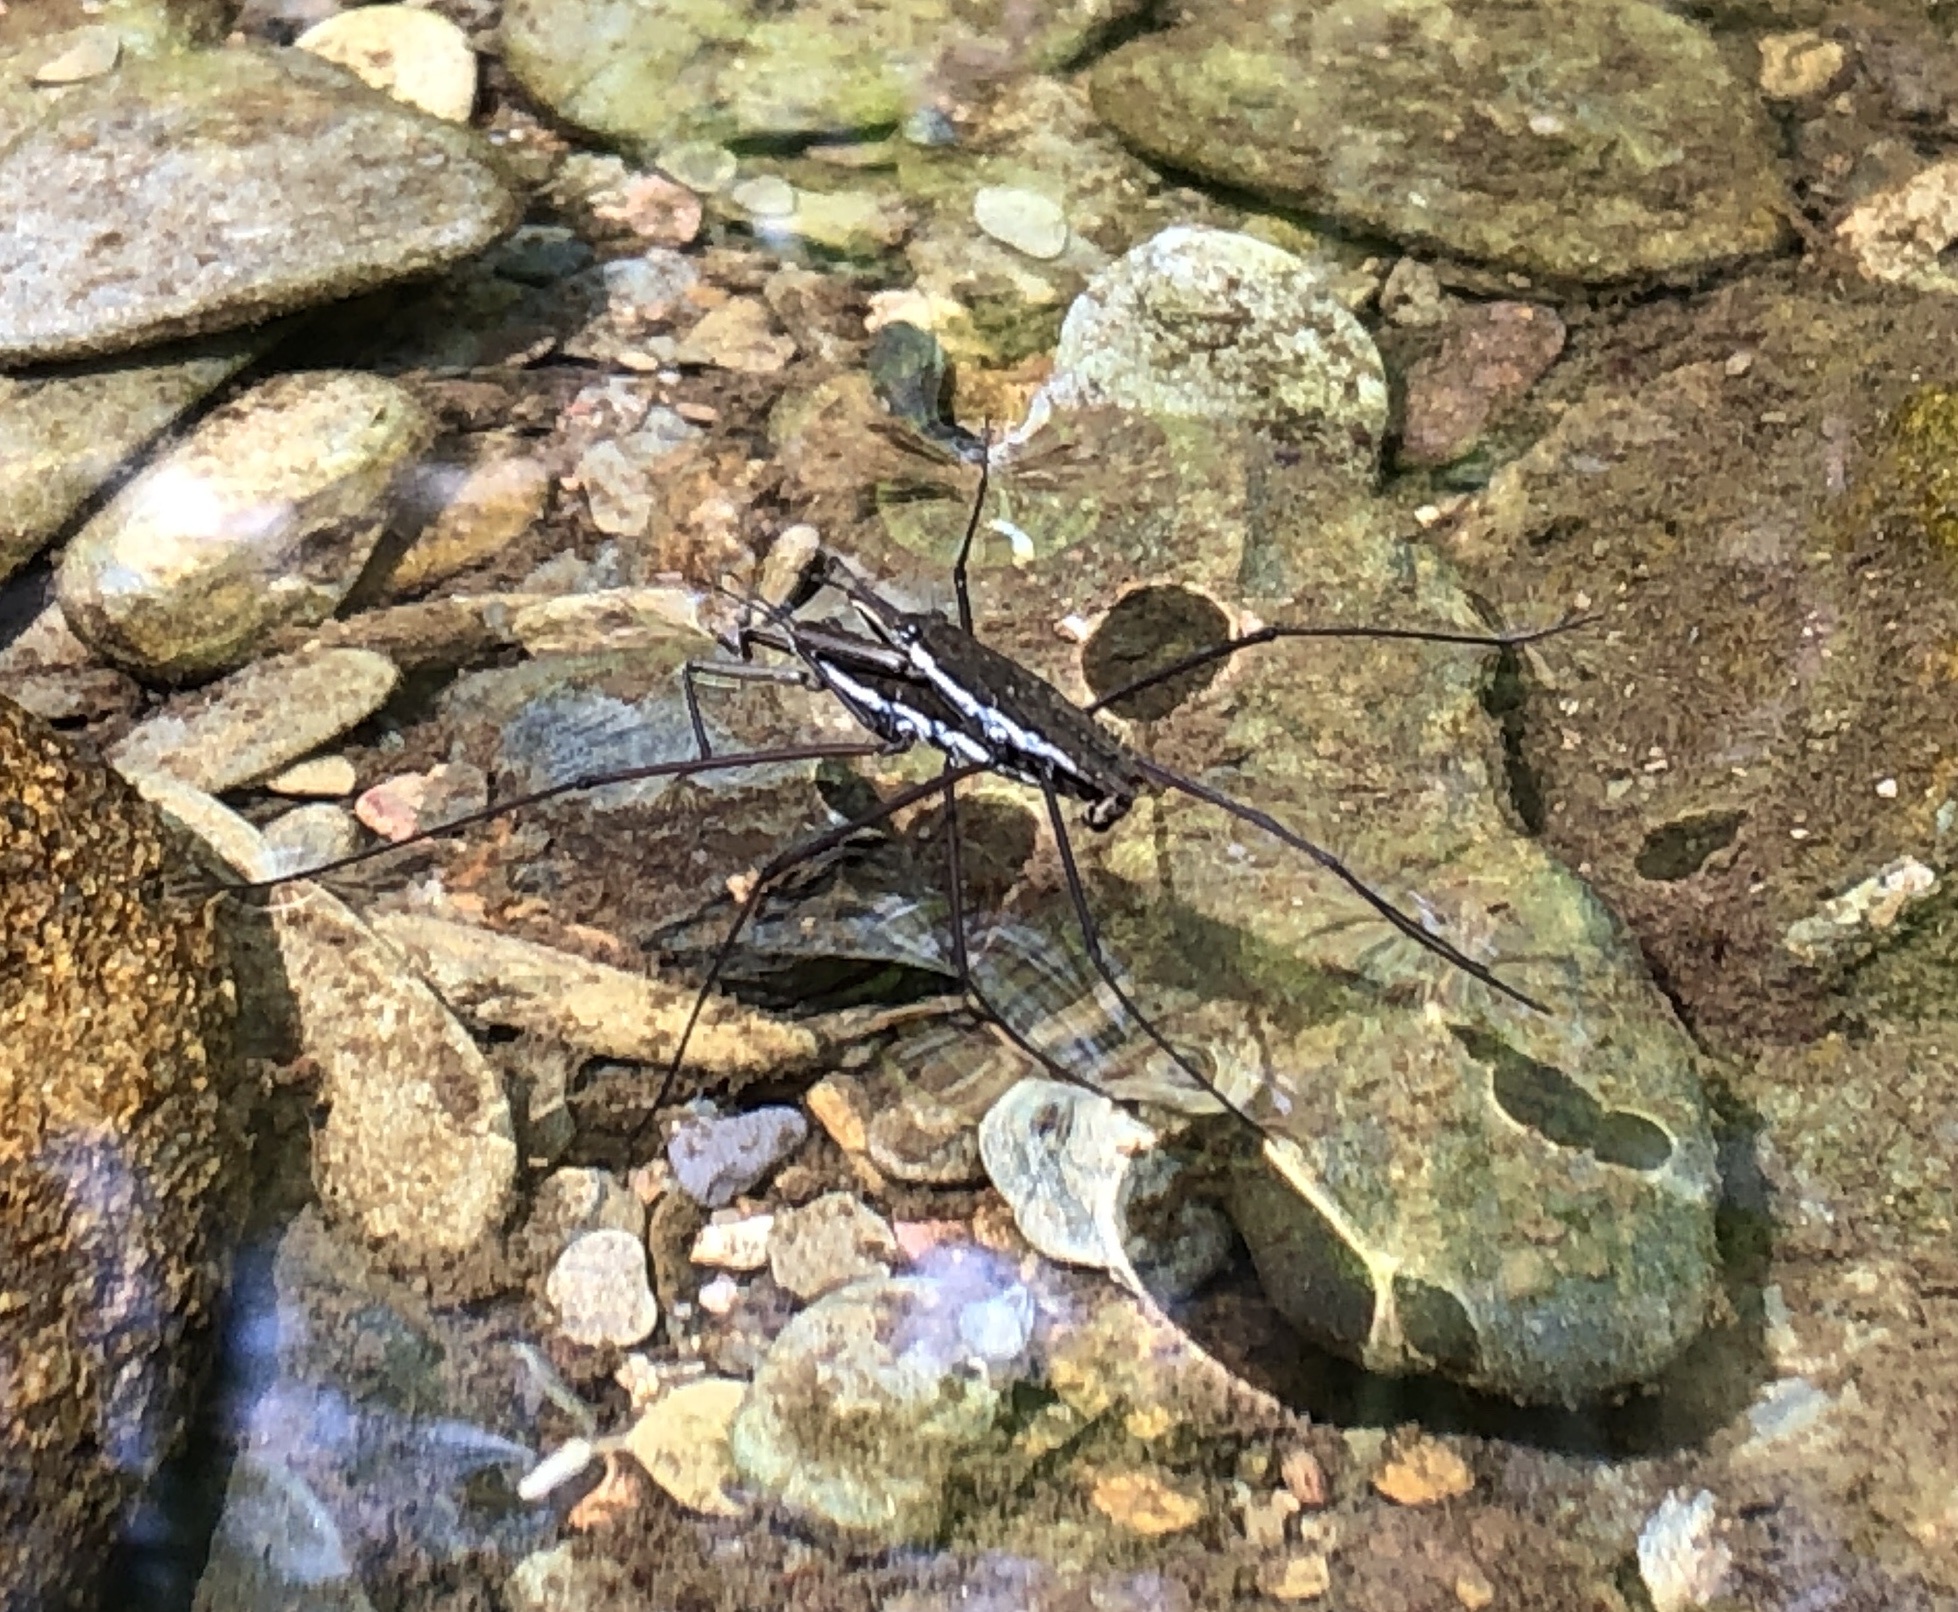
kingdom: Animalia
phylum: Arthropoda
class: Insecta
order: Hemiptera
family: Gerridae
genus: Aquarius
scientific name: Aquarius
